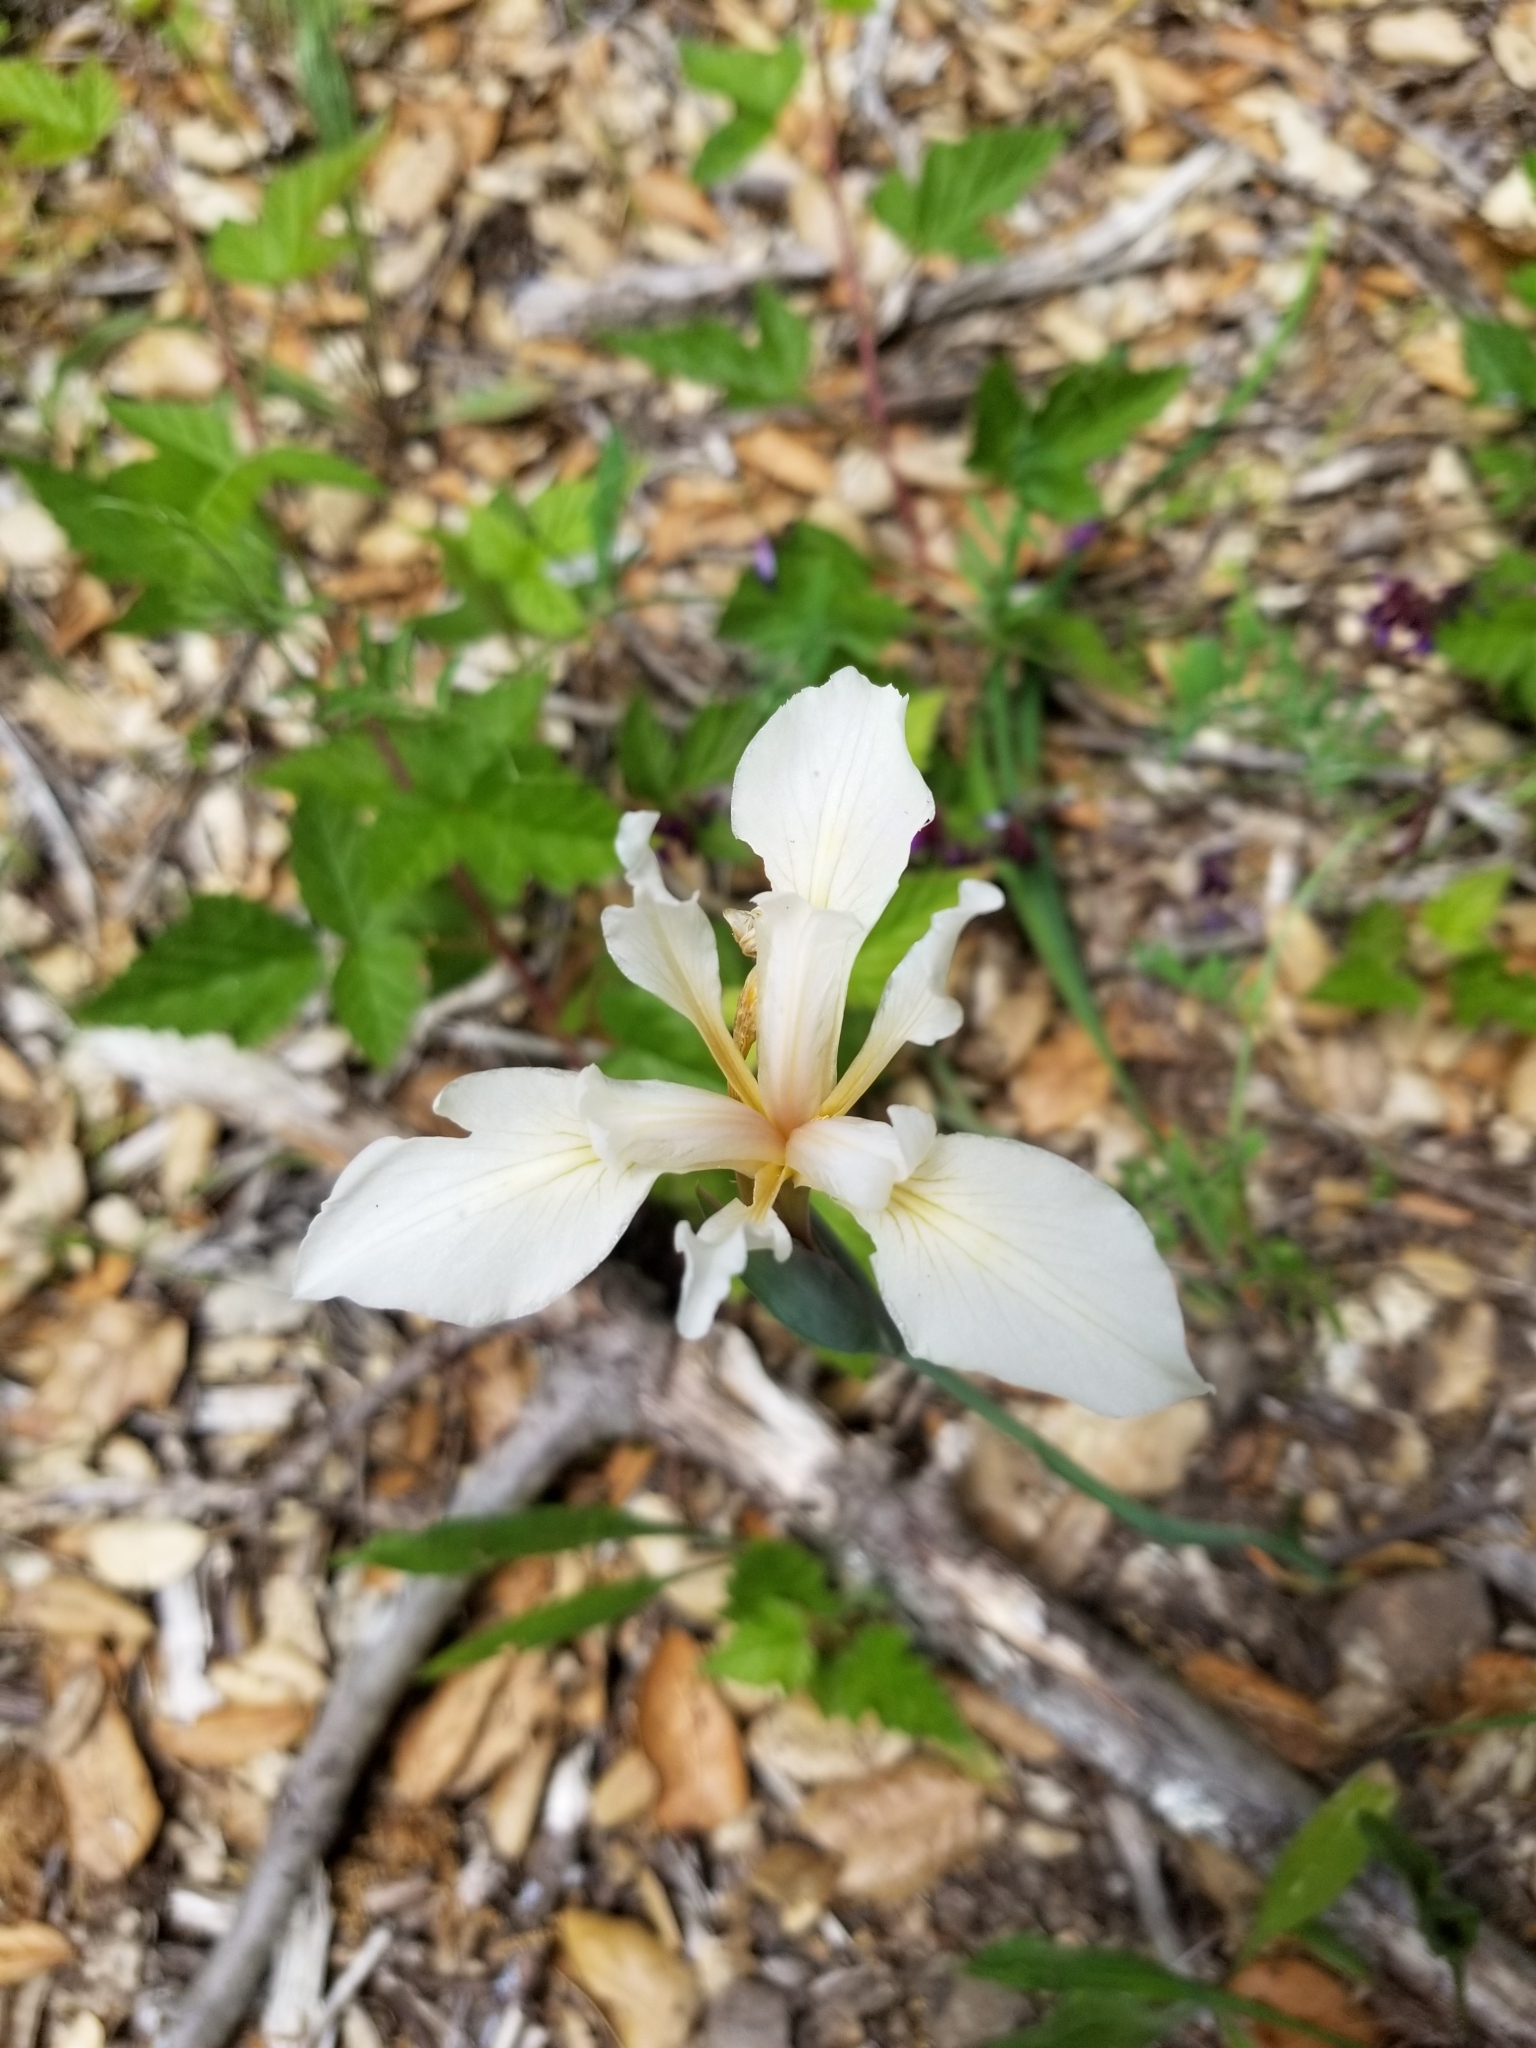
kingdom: Plantae
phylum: Tracheophyta
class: Liliopsida
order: Asparagales
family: Iridaceae
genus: Iris
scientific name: Iris fernaldii
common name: Fernald's iris
